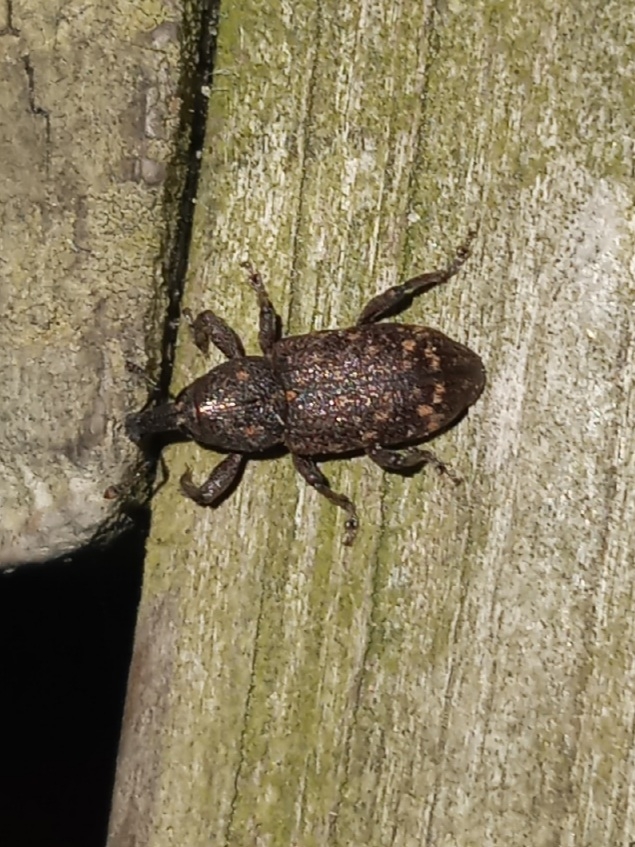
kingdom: Animalia
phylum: Arthropoda
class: Insecta
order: Coleoptera
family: Curculionidae
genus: Hylobius
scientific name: Hylobius pales
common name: Pales weevil
